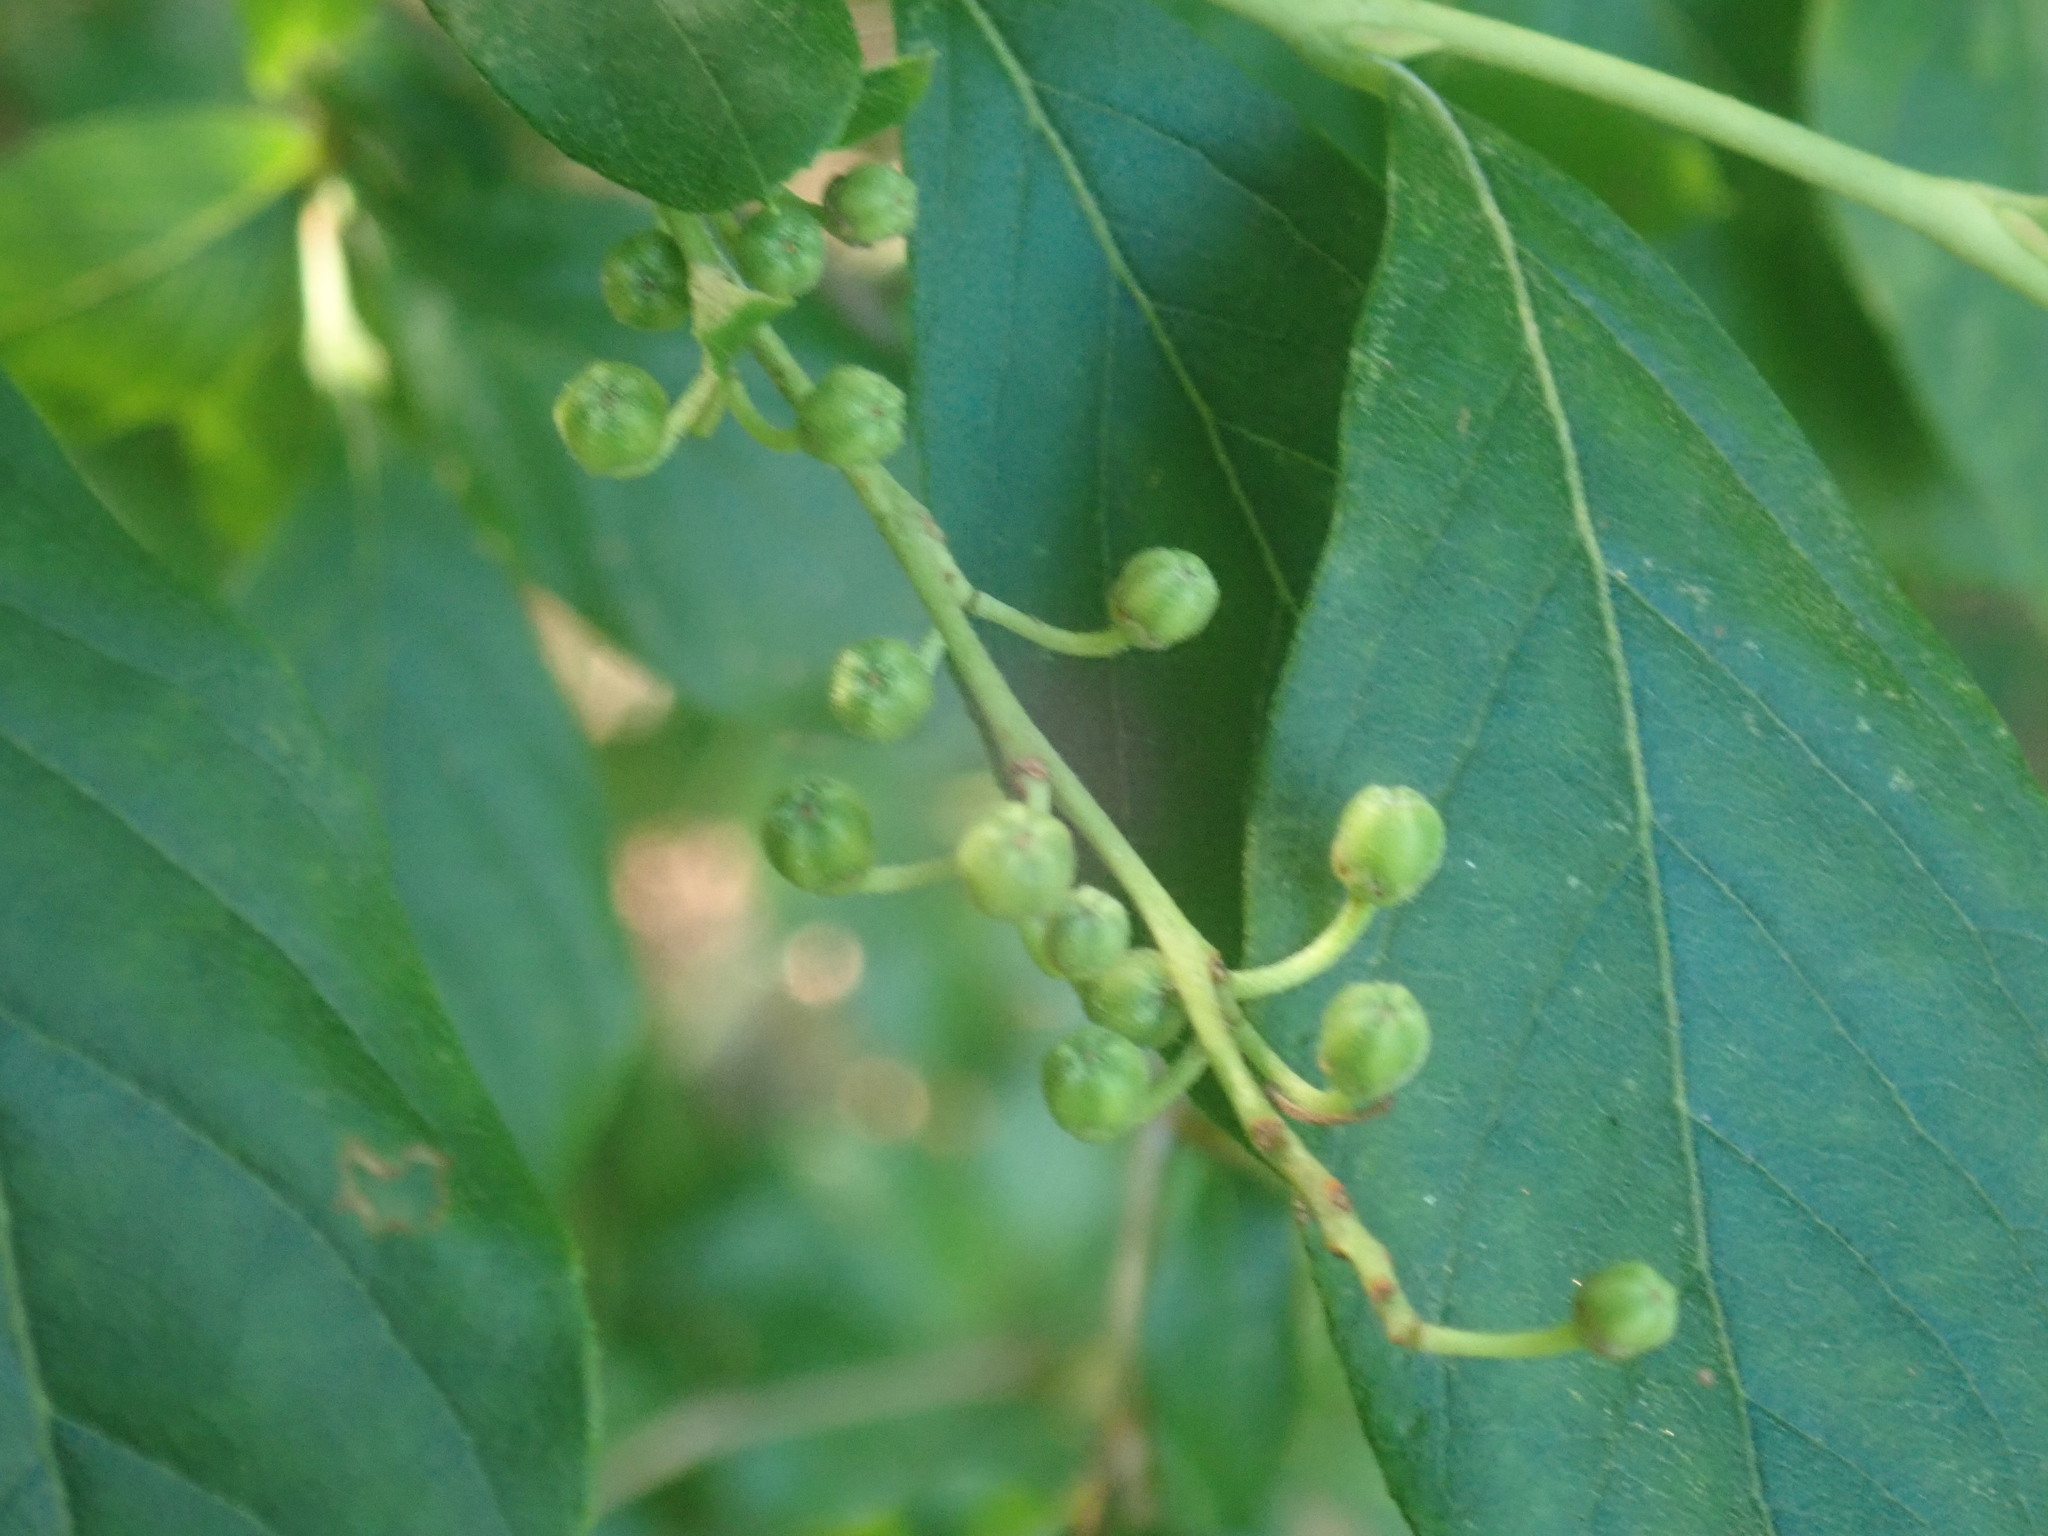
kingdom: Plantae
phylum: Tracheophyta
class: Magnoliopsida
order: Ericales
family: Ericaceae
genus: Lyonia
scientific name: Lyonia ligustrina
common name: Maleberry
